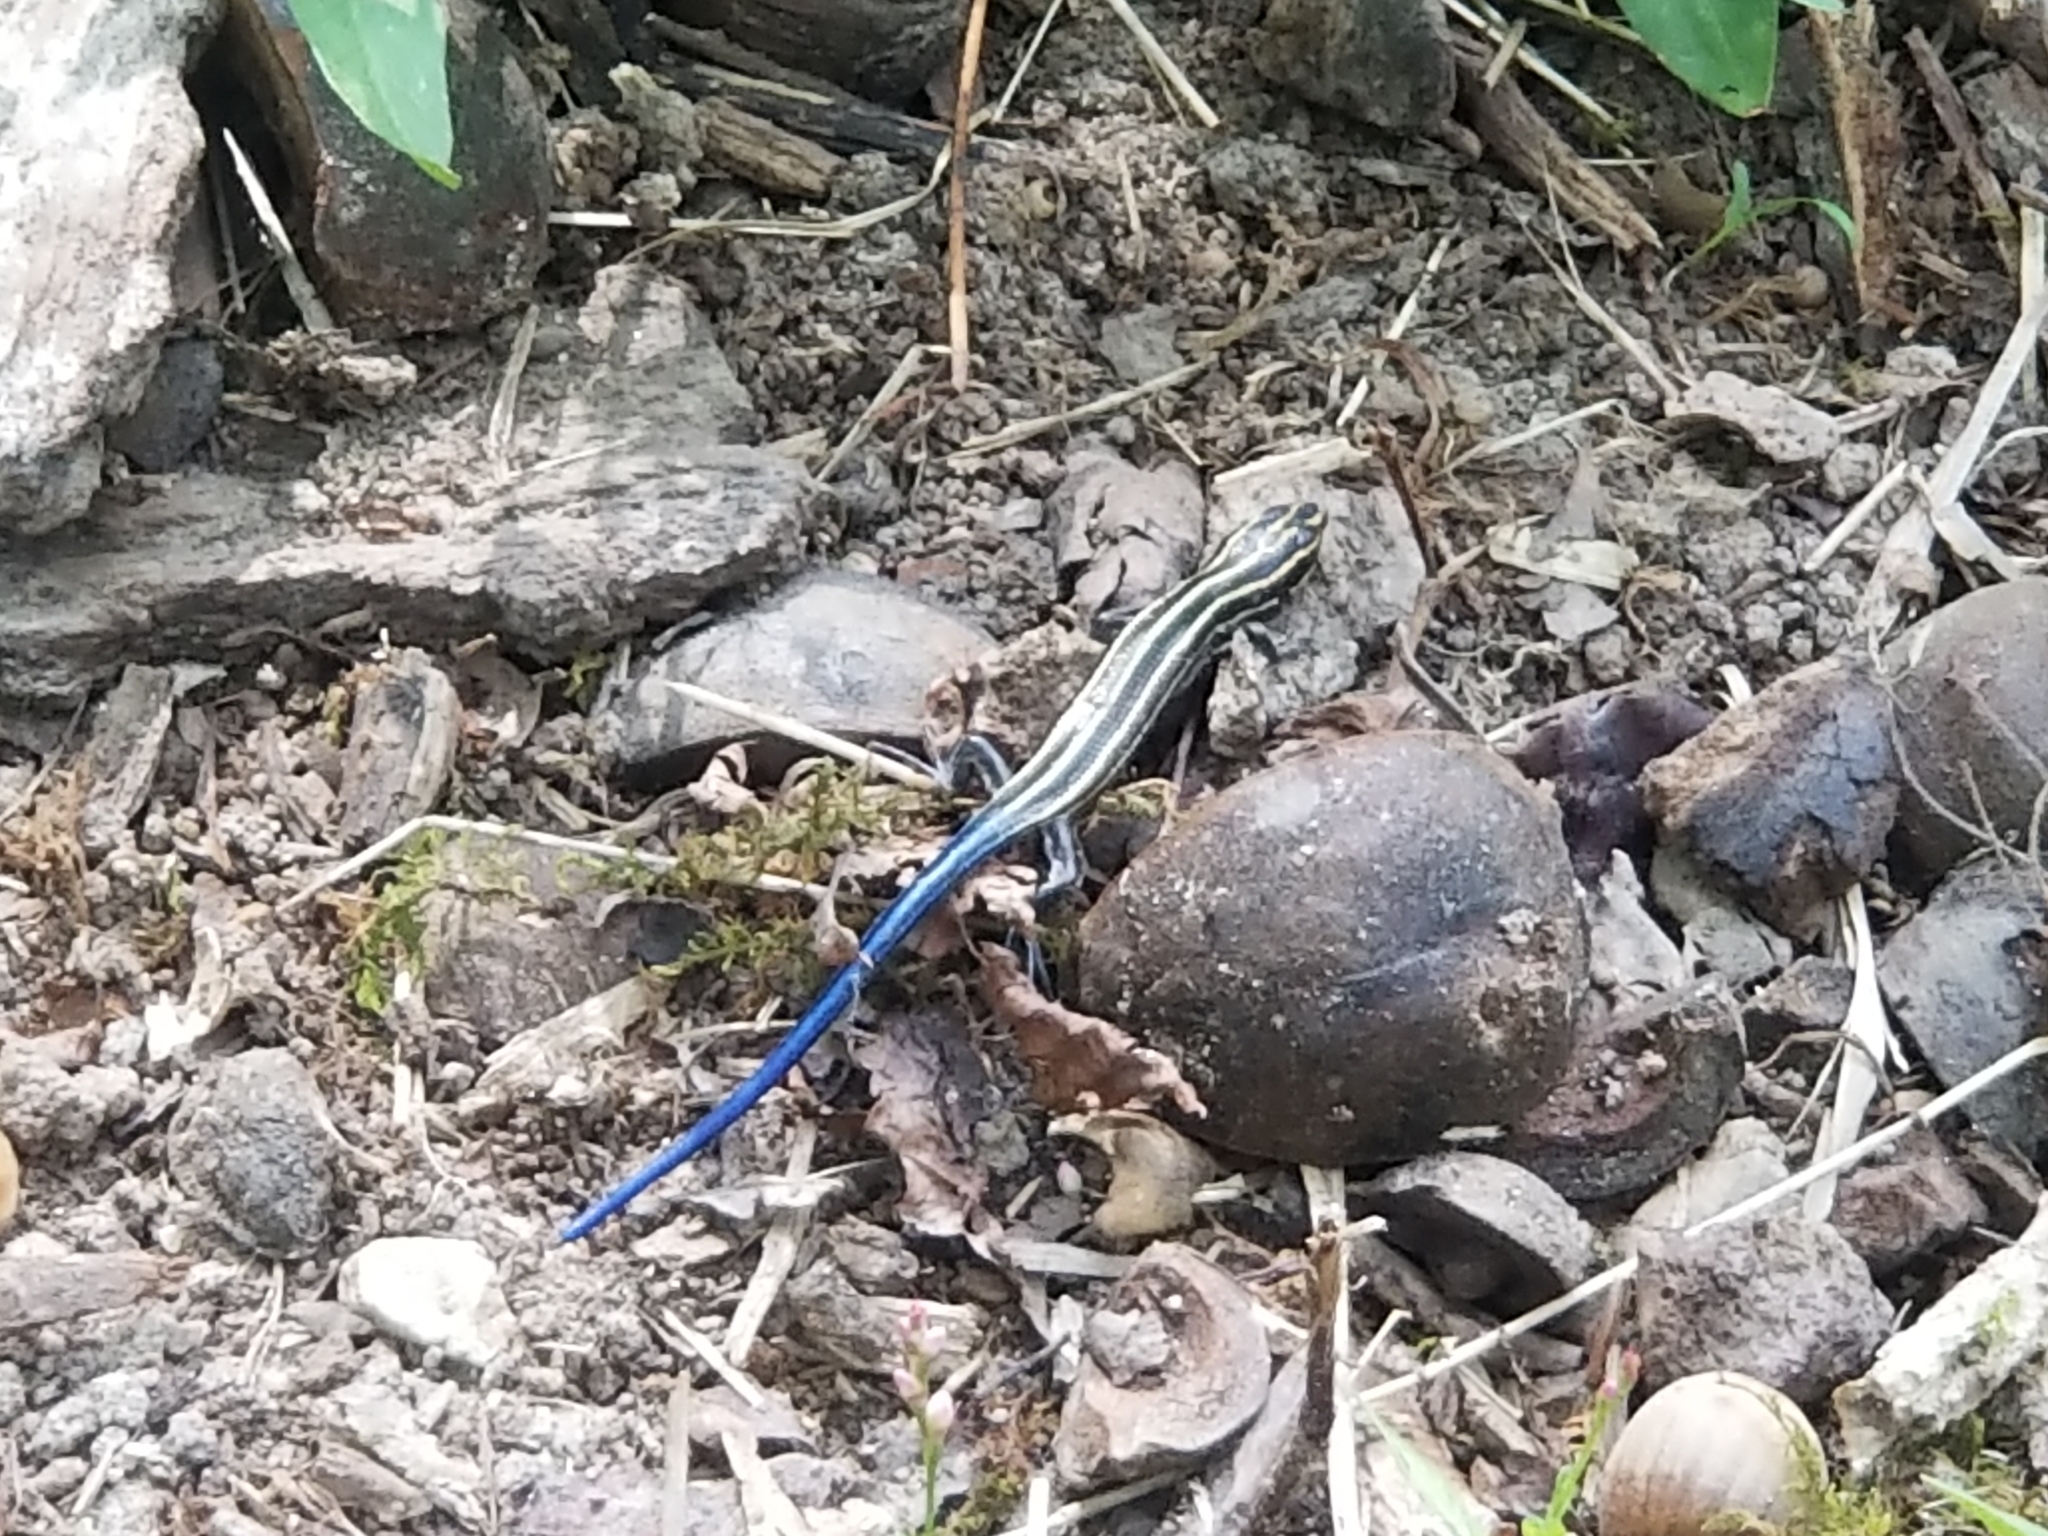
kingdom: Animalia
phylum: Chordata
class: Squamata
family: Scincidae
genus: Plestiodon
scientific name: Plestiodon fasciatus
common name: Five-lined skink
